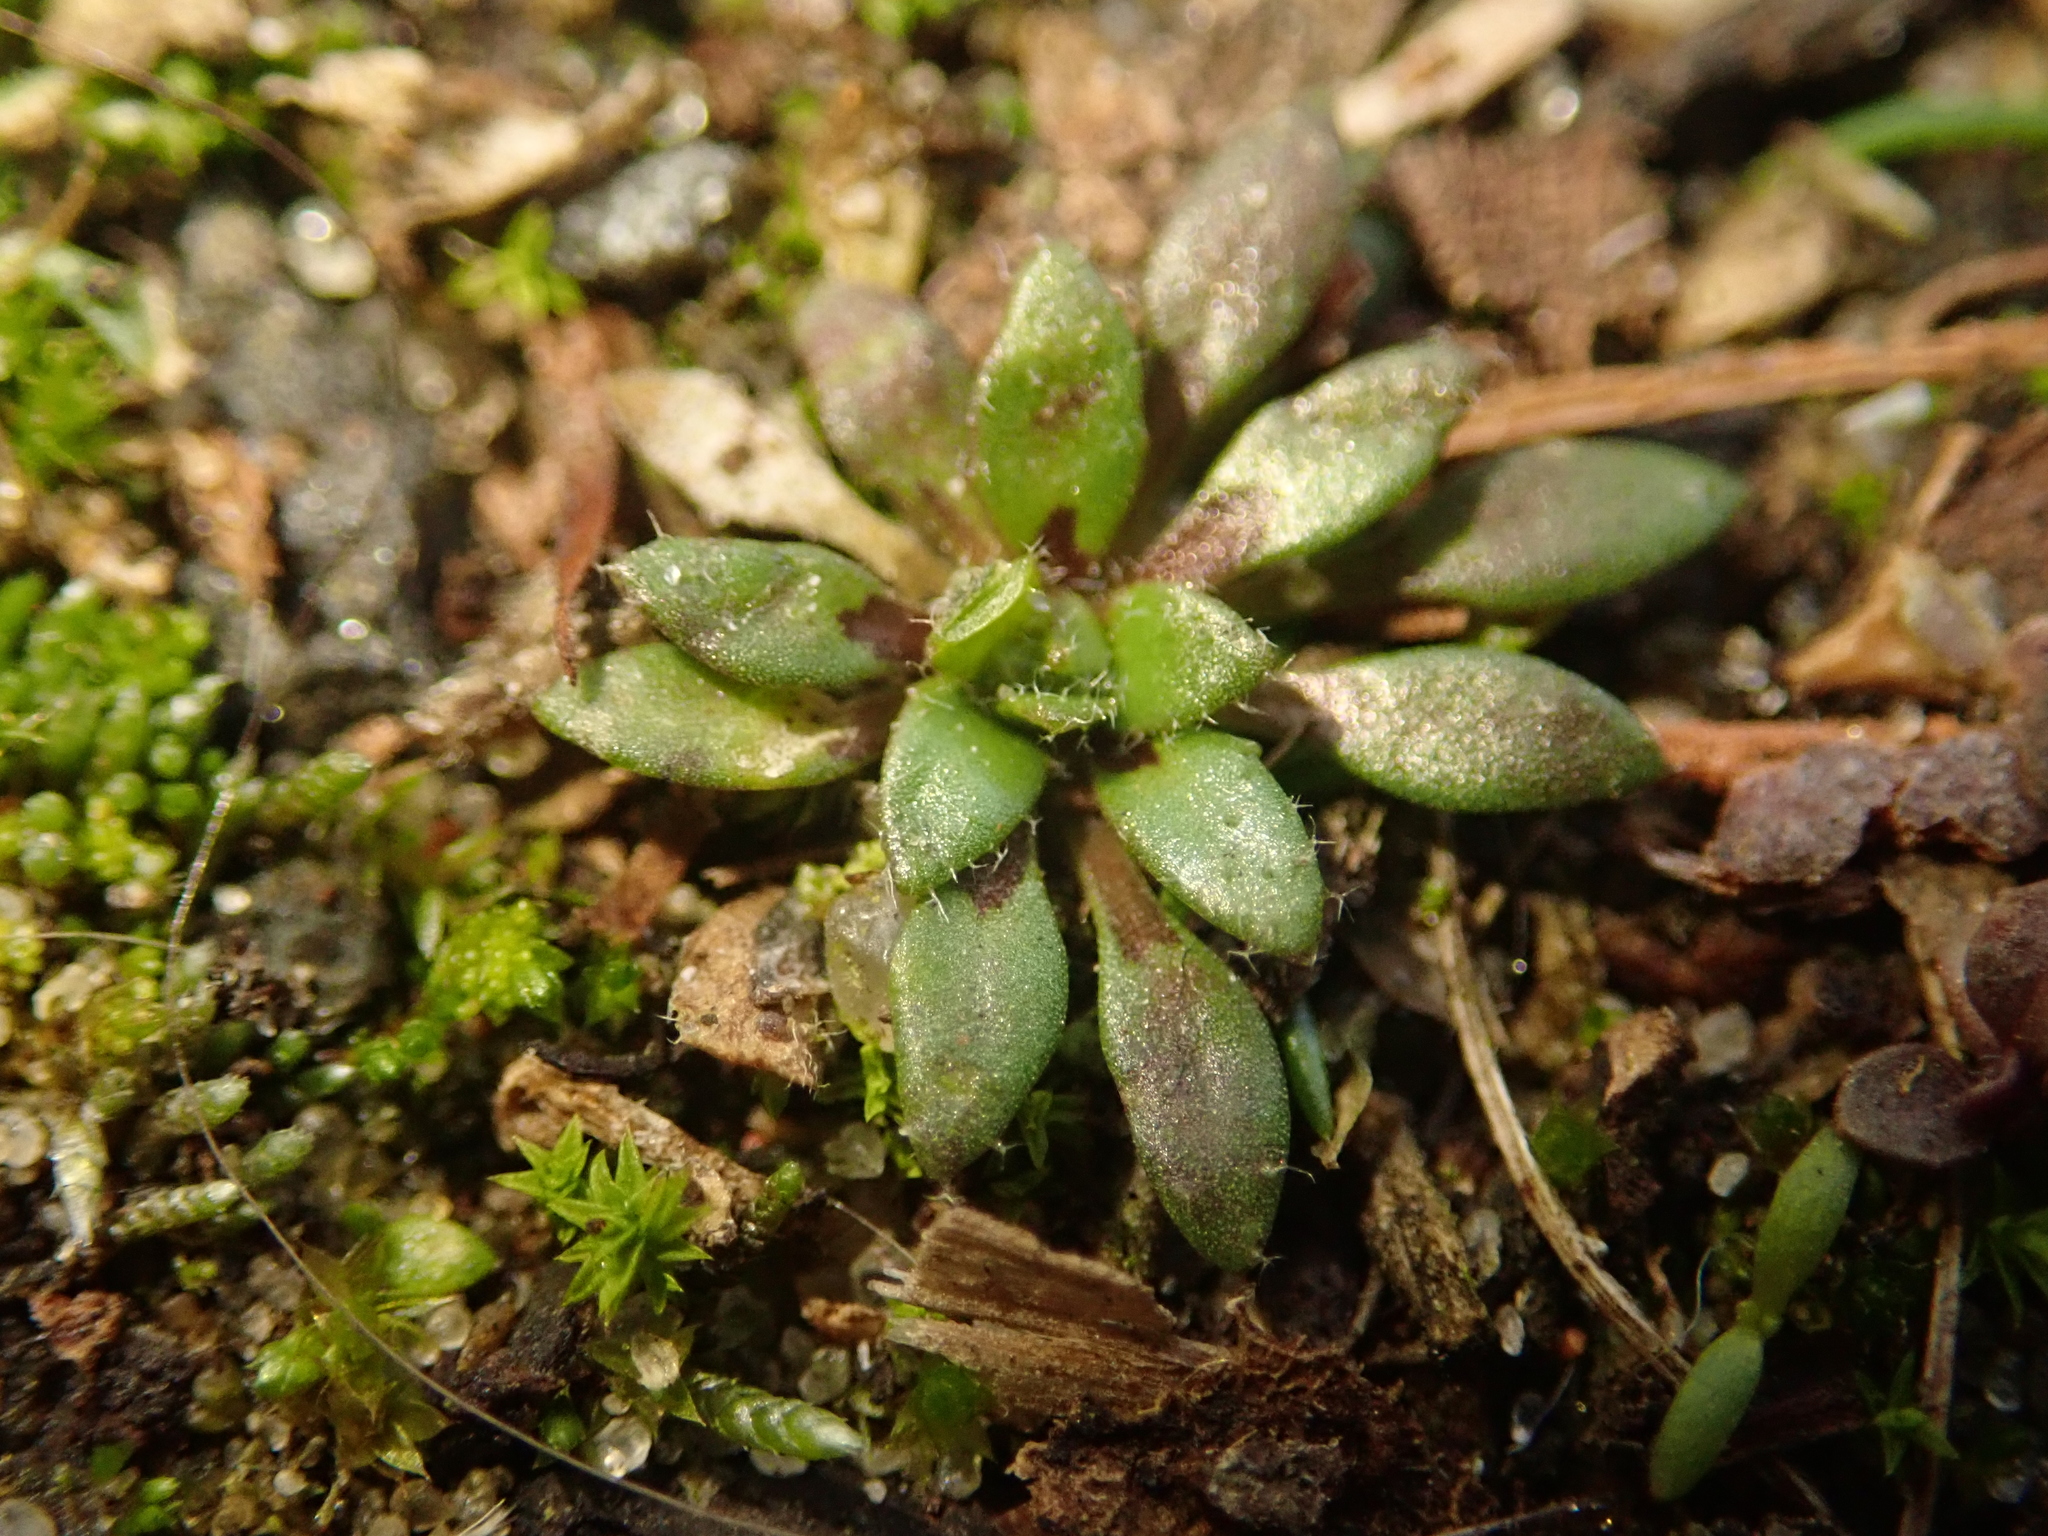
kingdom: Plantae
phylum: Tracheophyta
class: Magnoliopsida
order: Brassicales
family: Brassicaceae
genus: Draba
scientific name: Draba verna
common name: Spring draba
